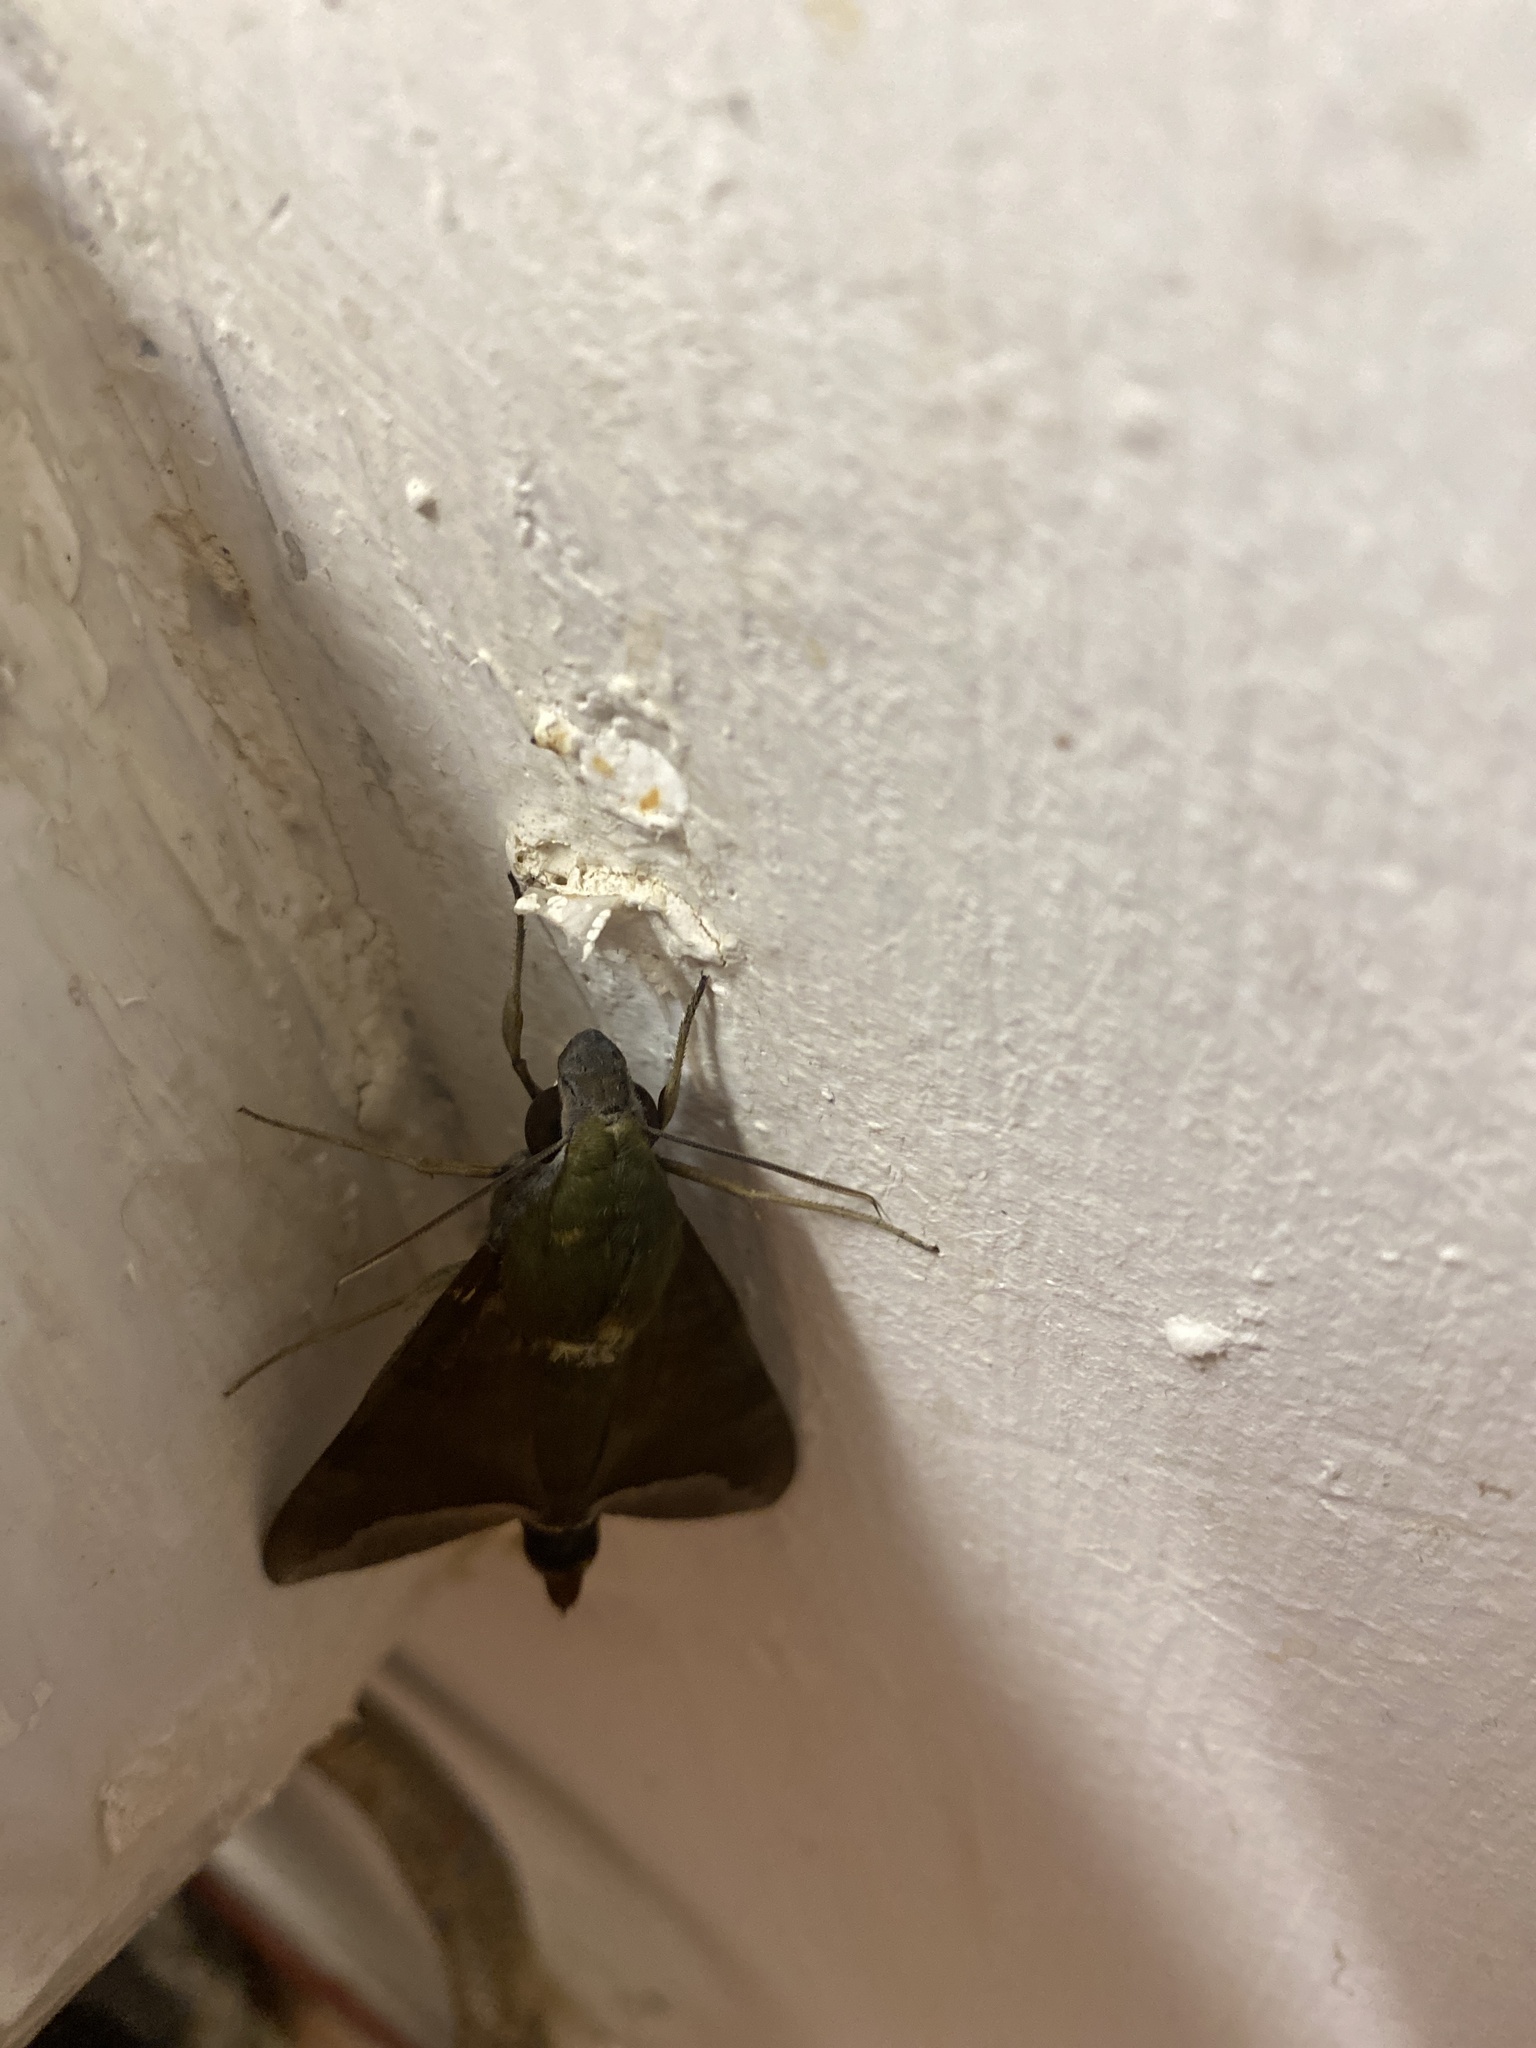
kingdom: Animalia
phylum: Arthropoda
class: Insecta
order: Lepidoptera
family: Sphingidae
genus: Nephele
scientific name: Nephele comma
